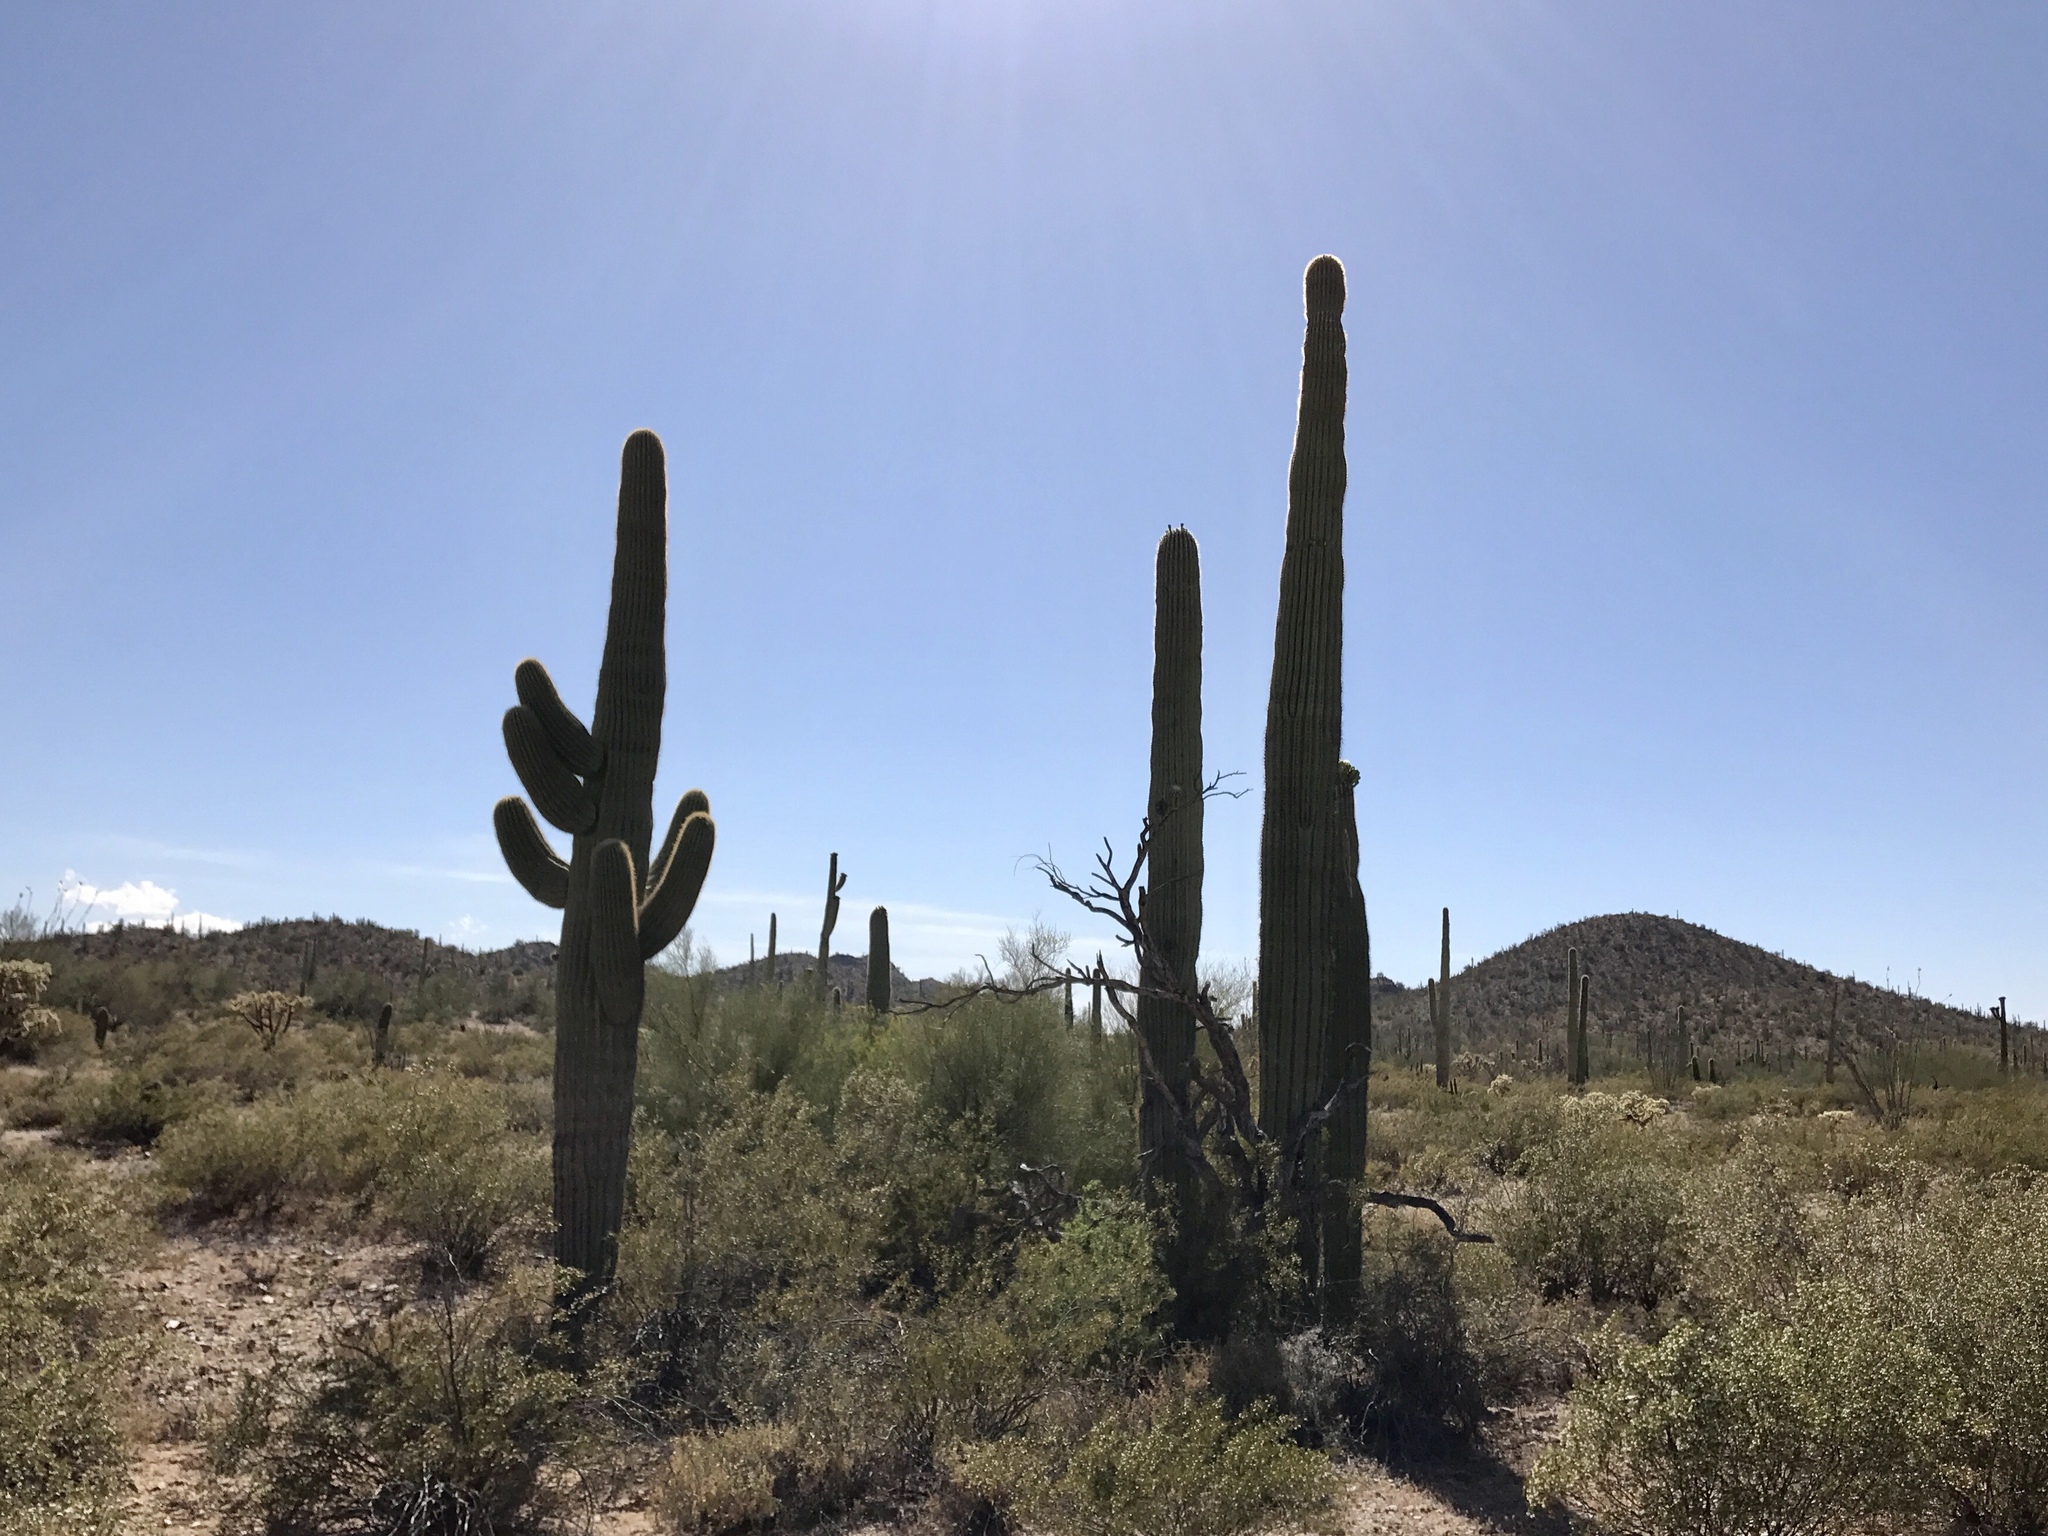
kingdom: Plantae
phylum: Tracheophyta
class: Magnoliopsida
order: Caryophyllales
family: Cactaceae
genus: Carnegiea
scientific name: Carnegiea gigantea
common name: Saguaro
